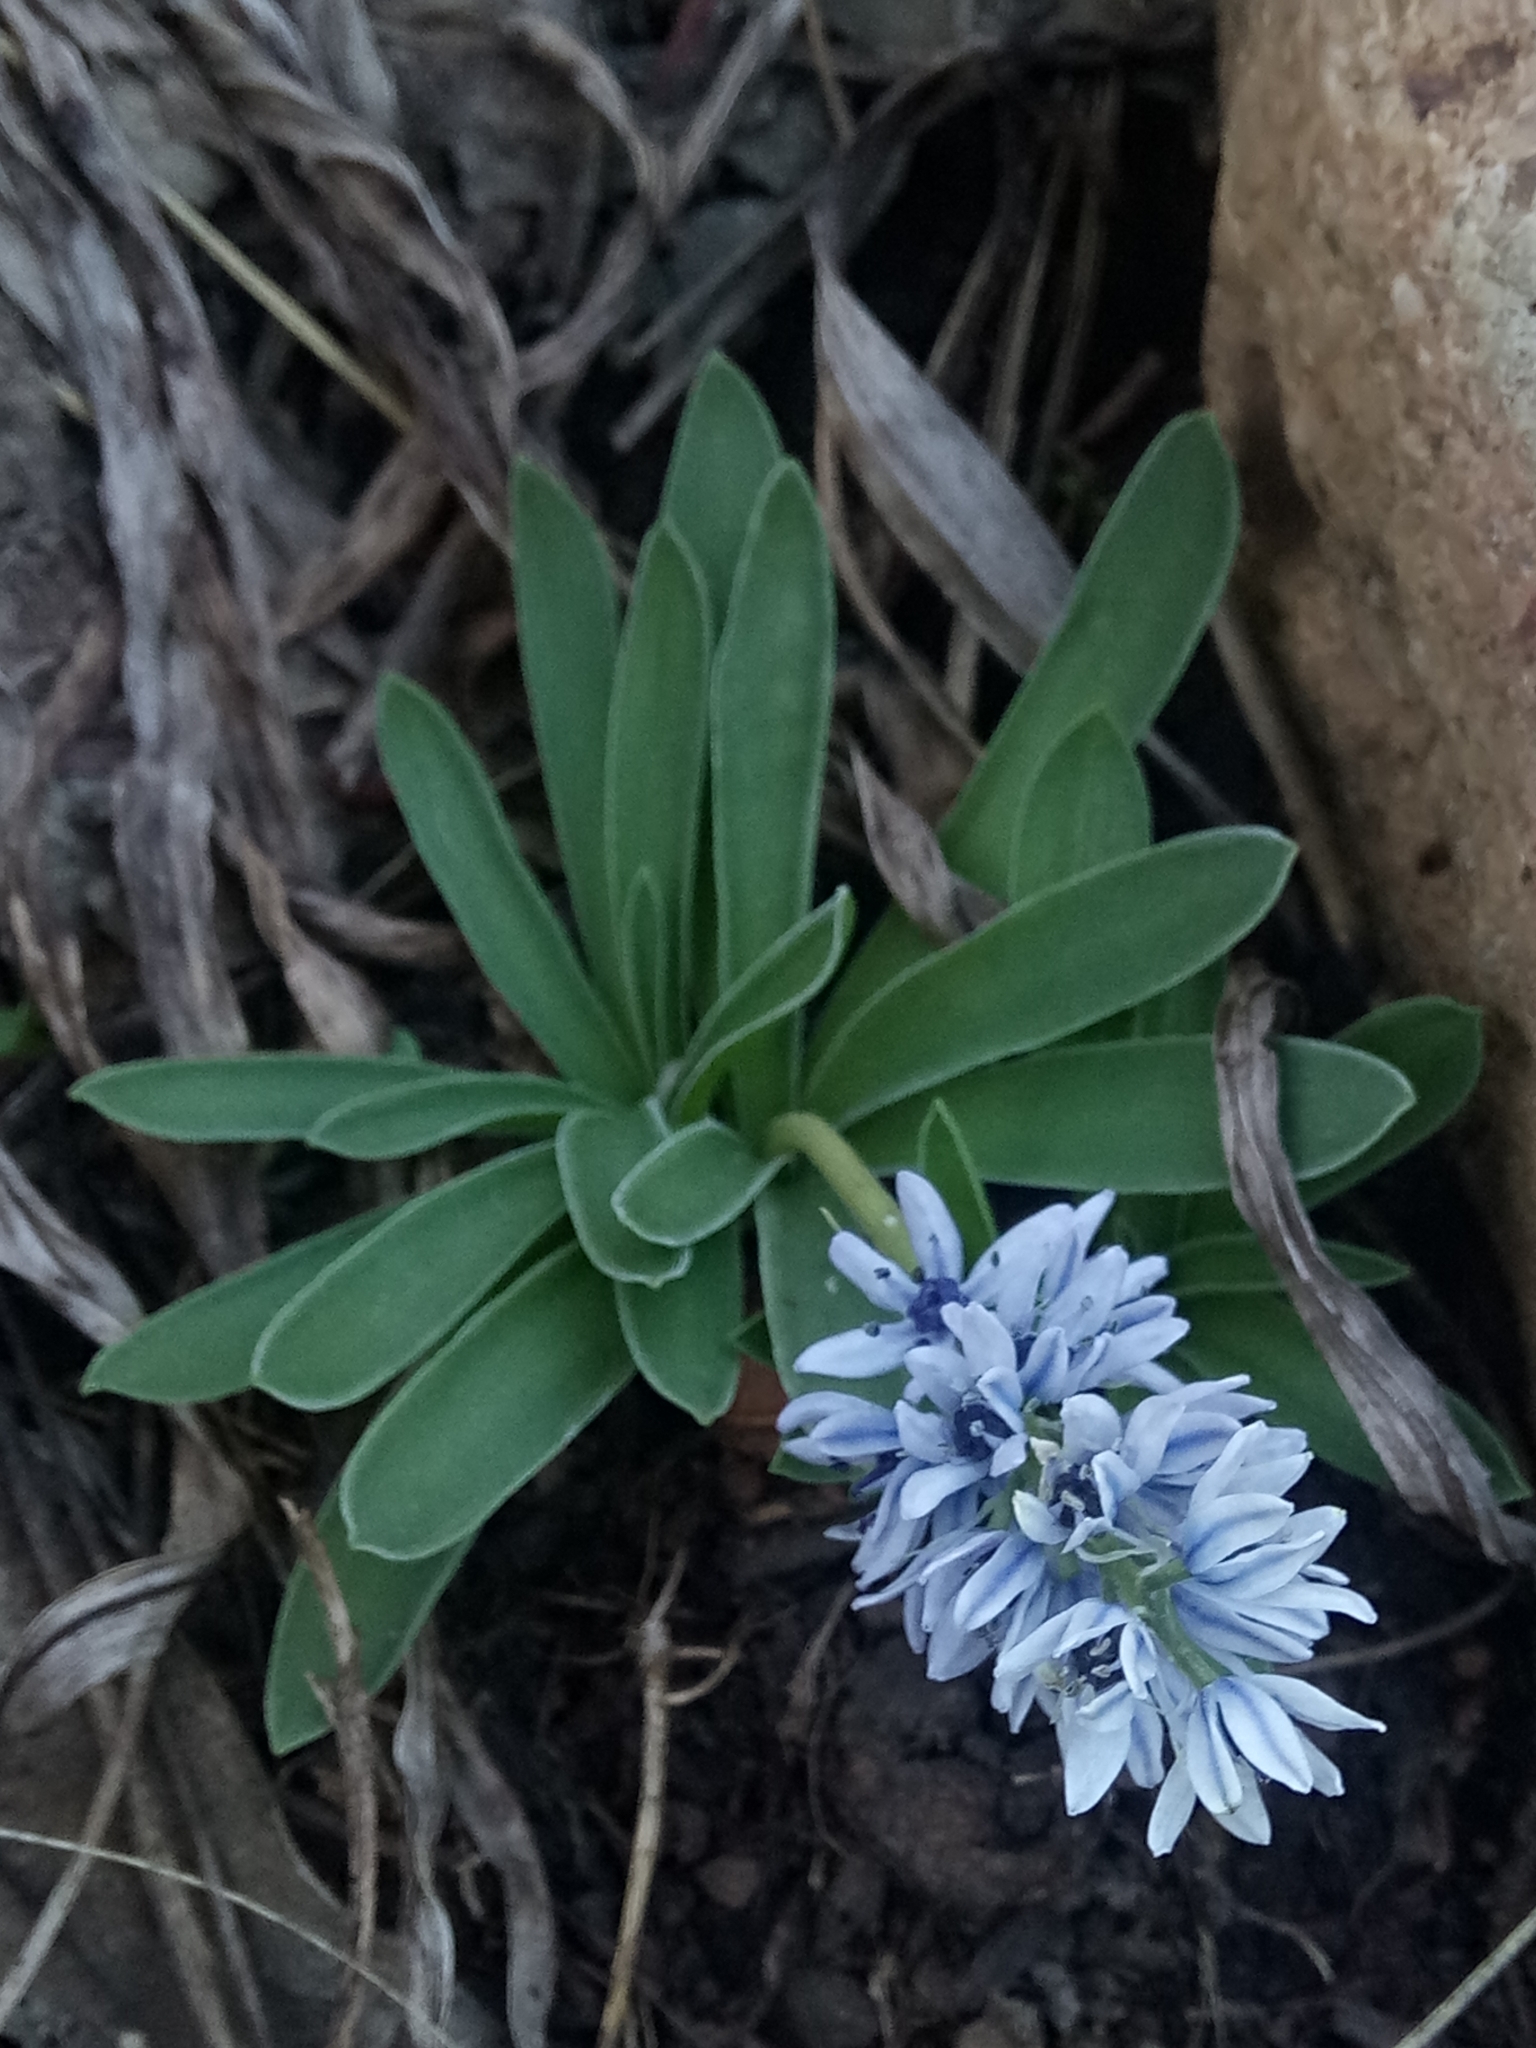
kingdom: Plantae
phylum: Tracheophyta
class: Liliopsida
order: Asparagales
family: Asparagaceae
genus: Hyacinthoides
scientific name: Hyacinthoides lingulata
